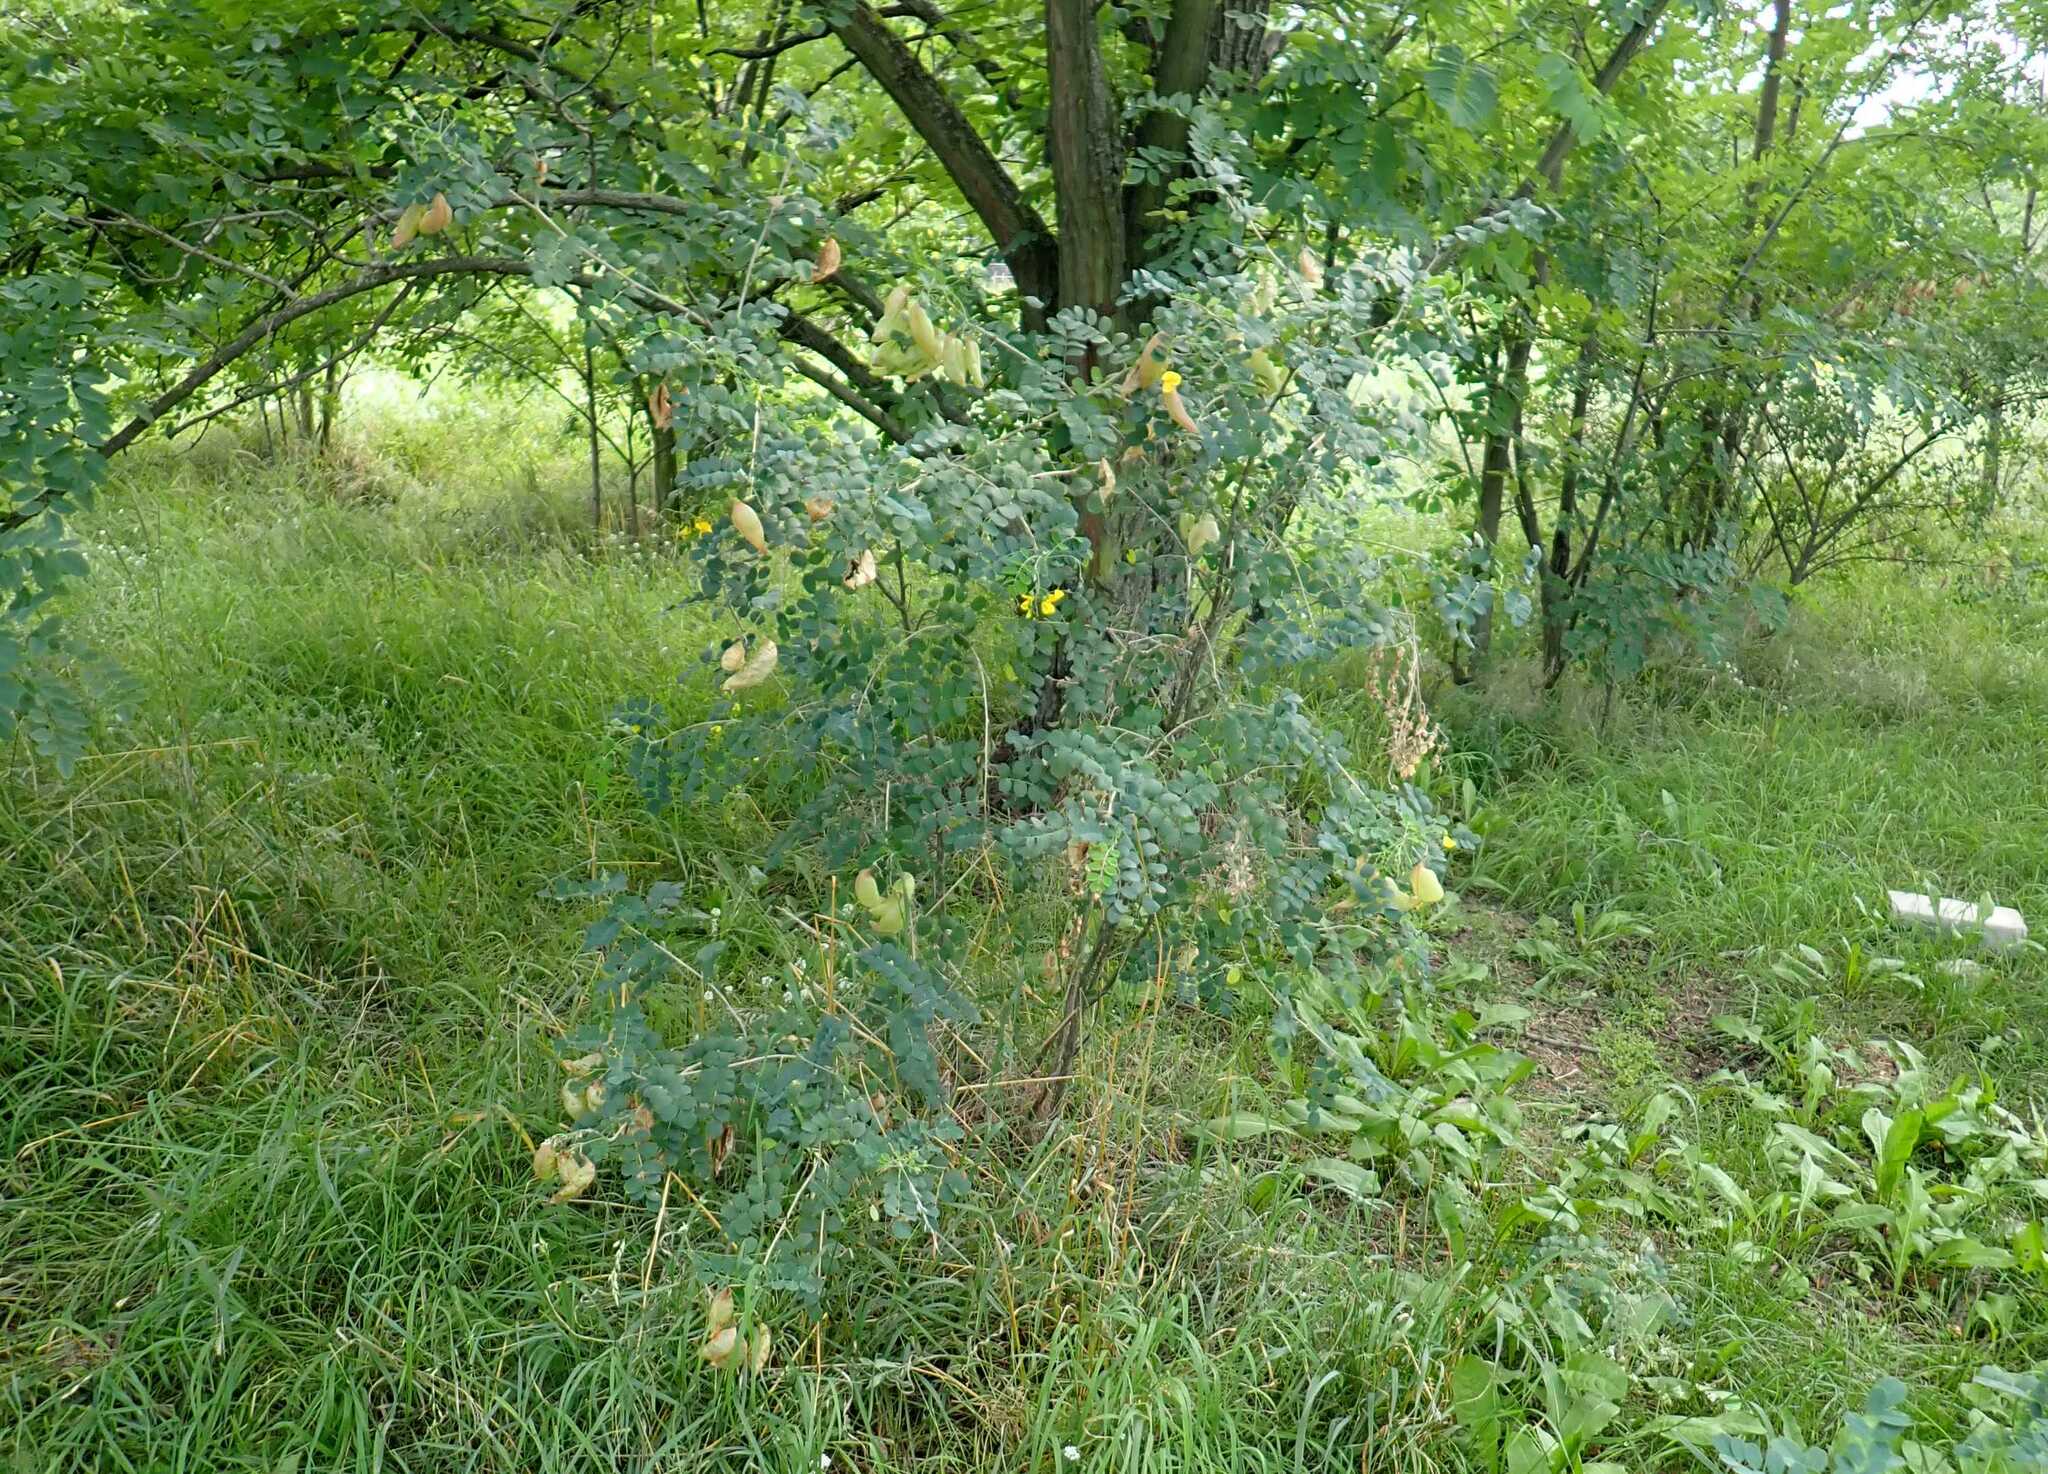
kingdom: Plantae
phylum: Tracheophyta
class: Magnoliopsida
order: Fabales
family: Fabaceae
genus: Colutea
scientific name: Colutea arborescens
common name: Bladder-senna
